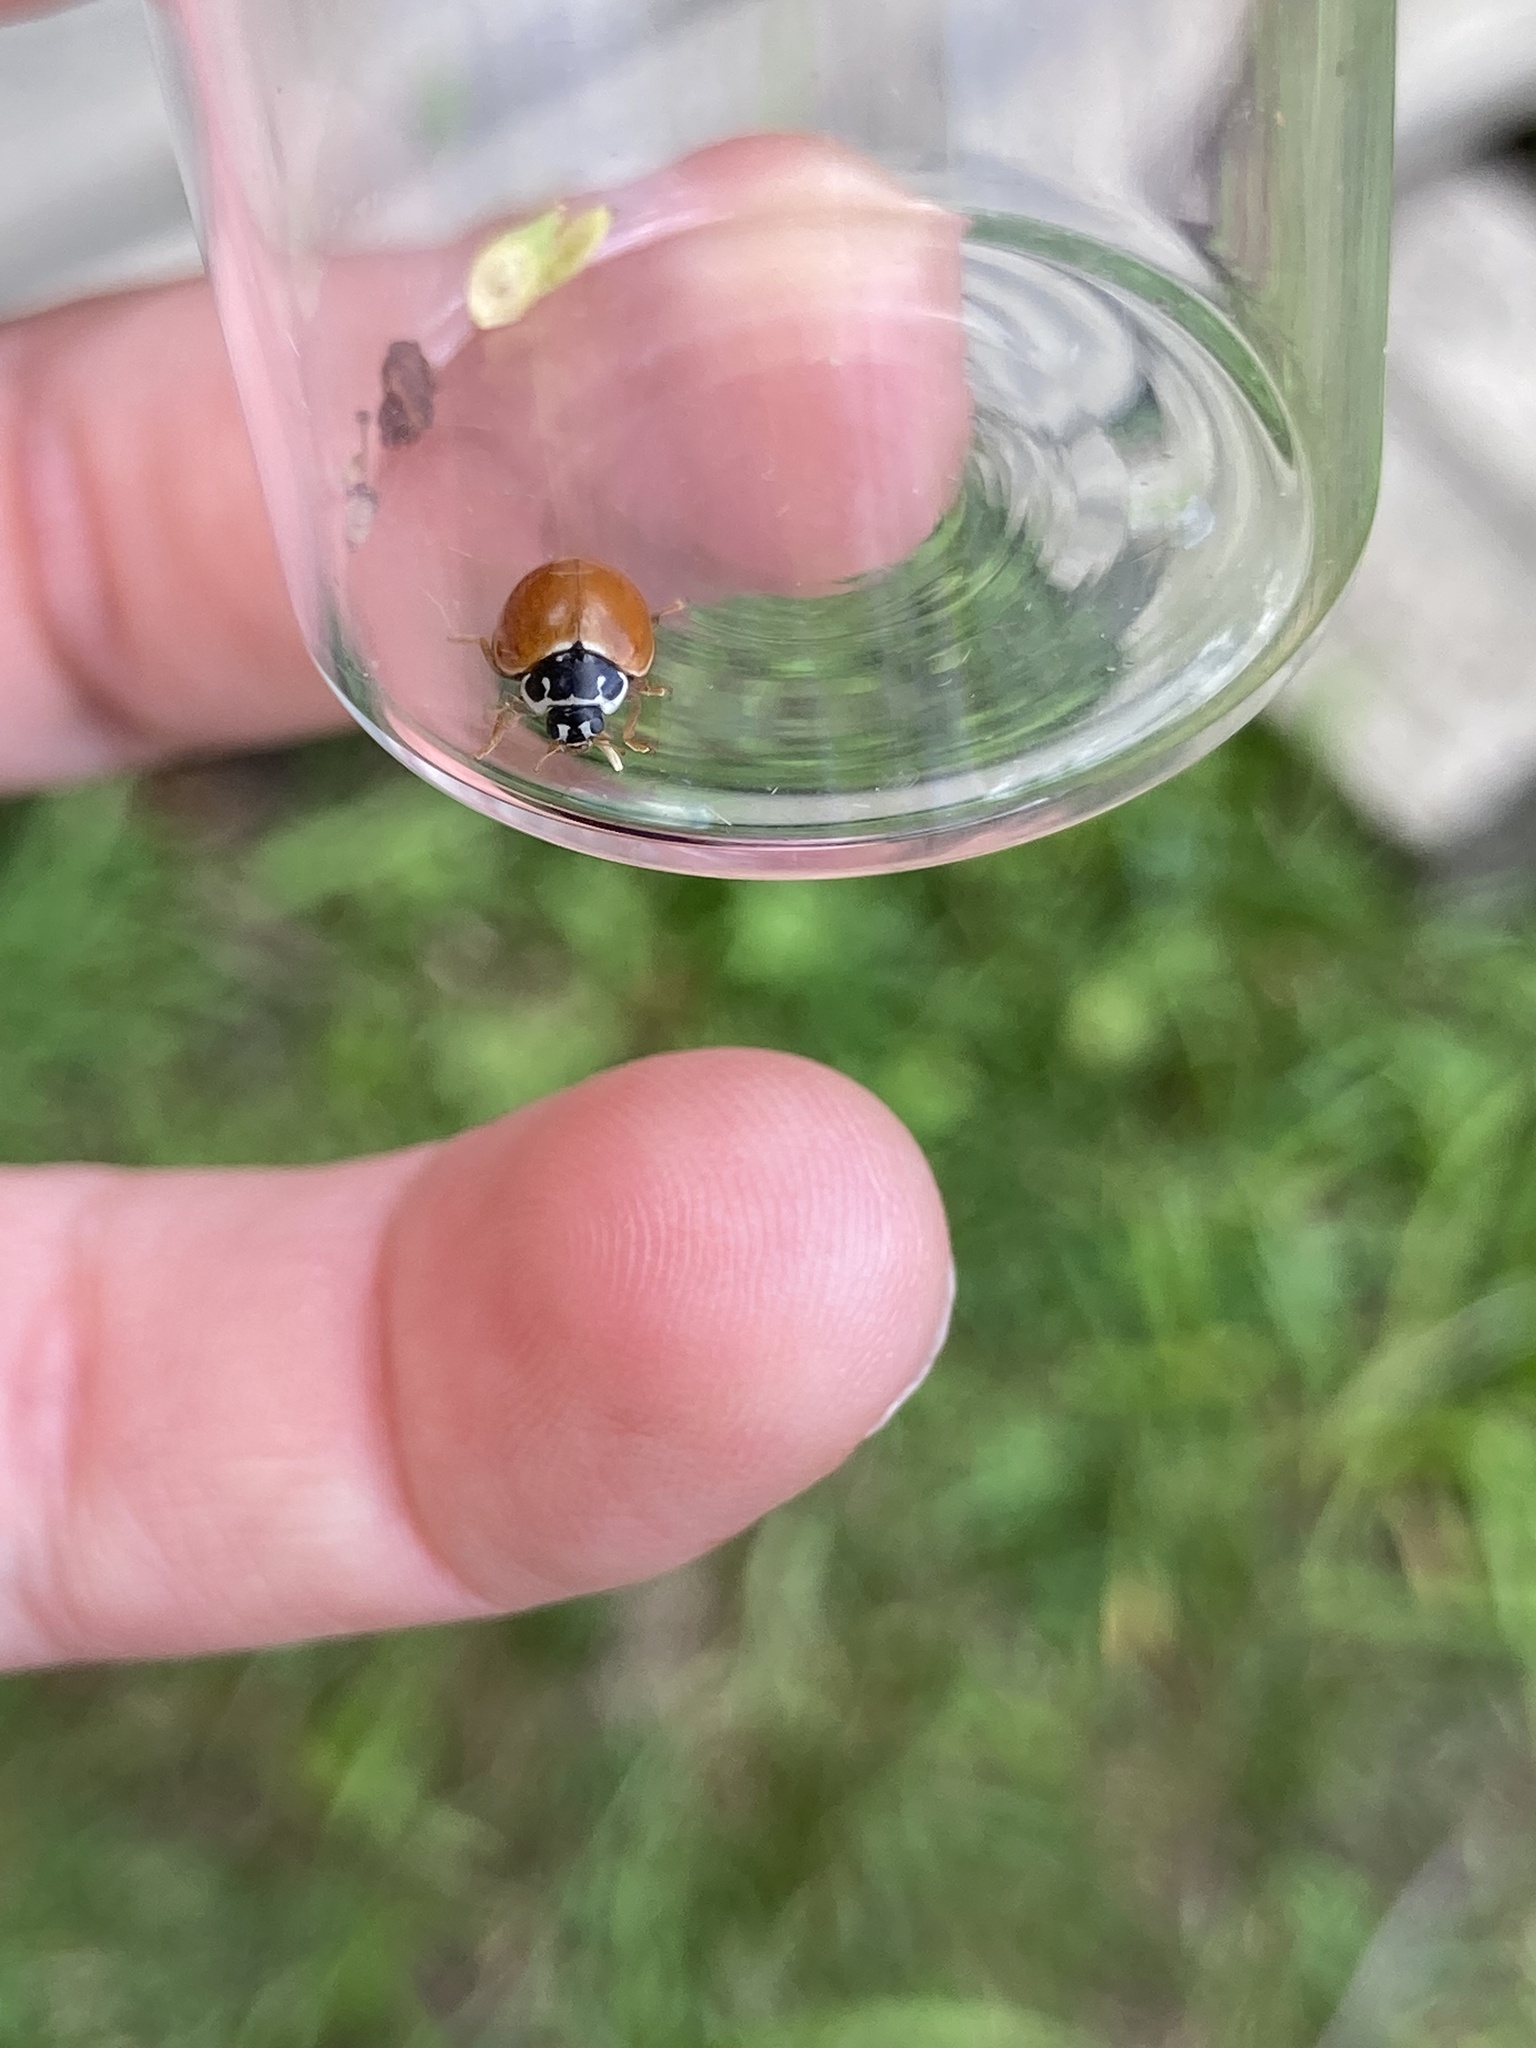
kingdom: Animalia
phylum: Arthropoda
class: Insecta
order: Coleoptera
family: Coccinellidae
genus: Cycloneda
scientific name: Cycloneda munda
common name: Polished lady beetle
